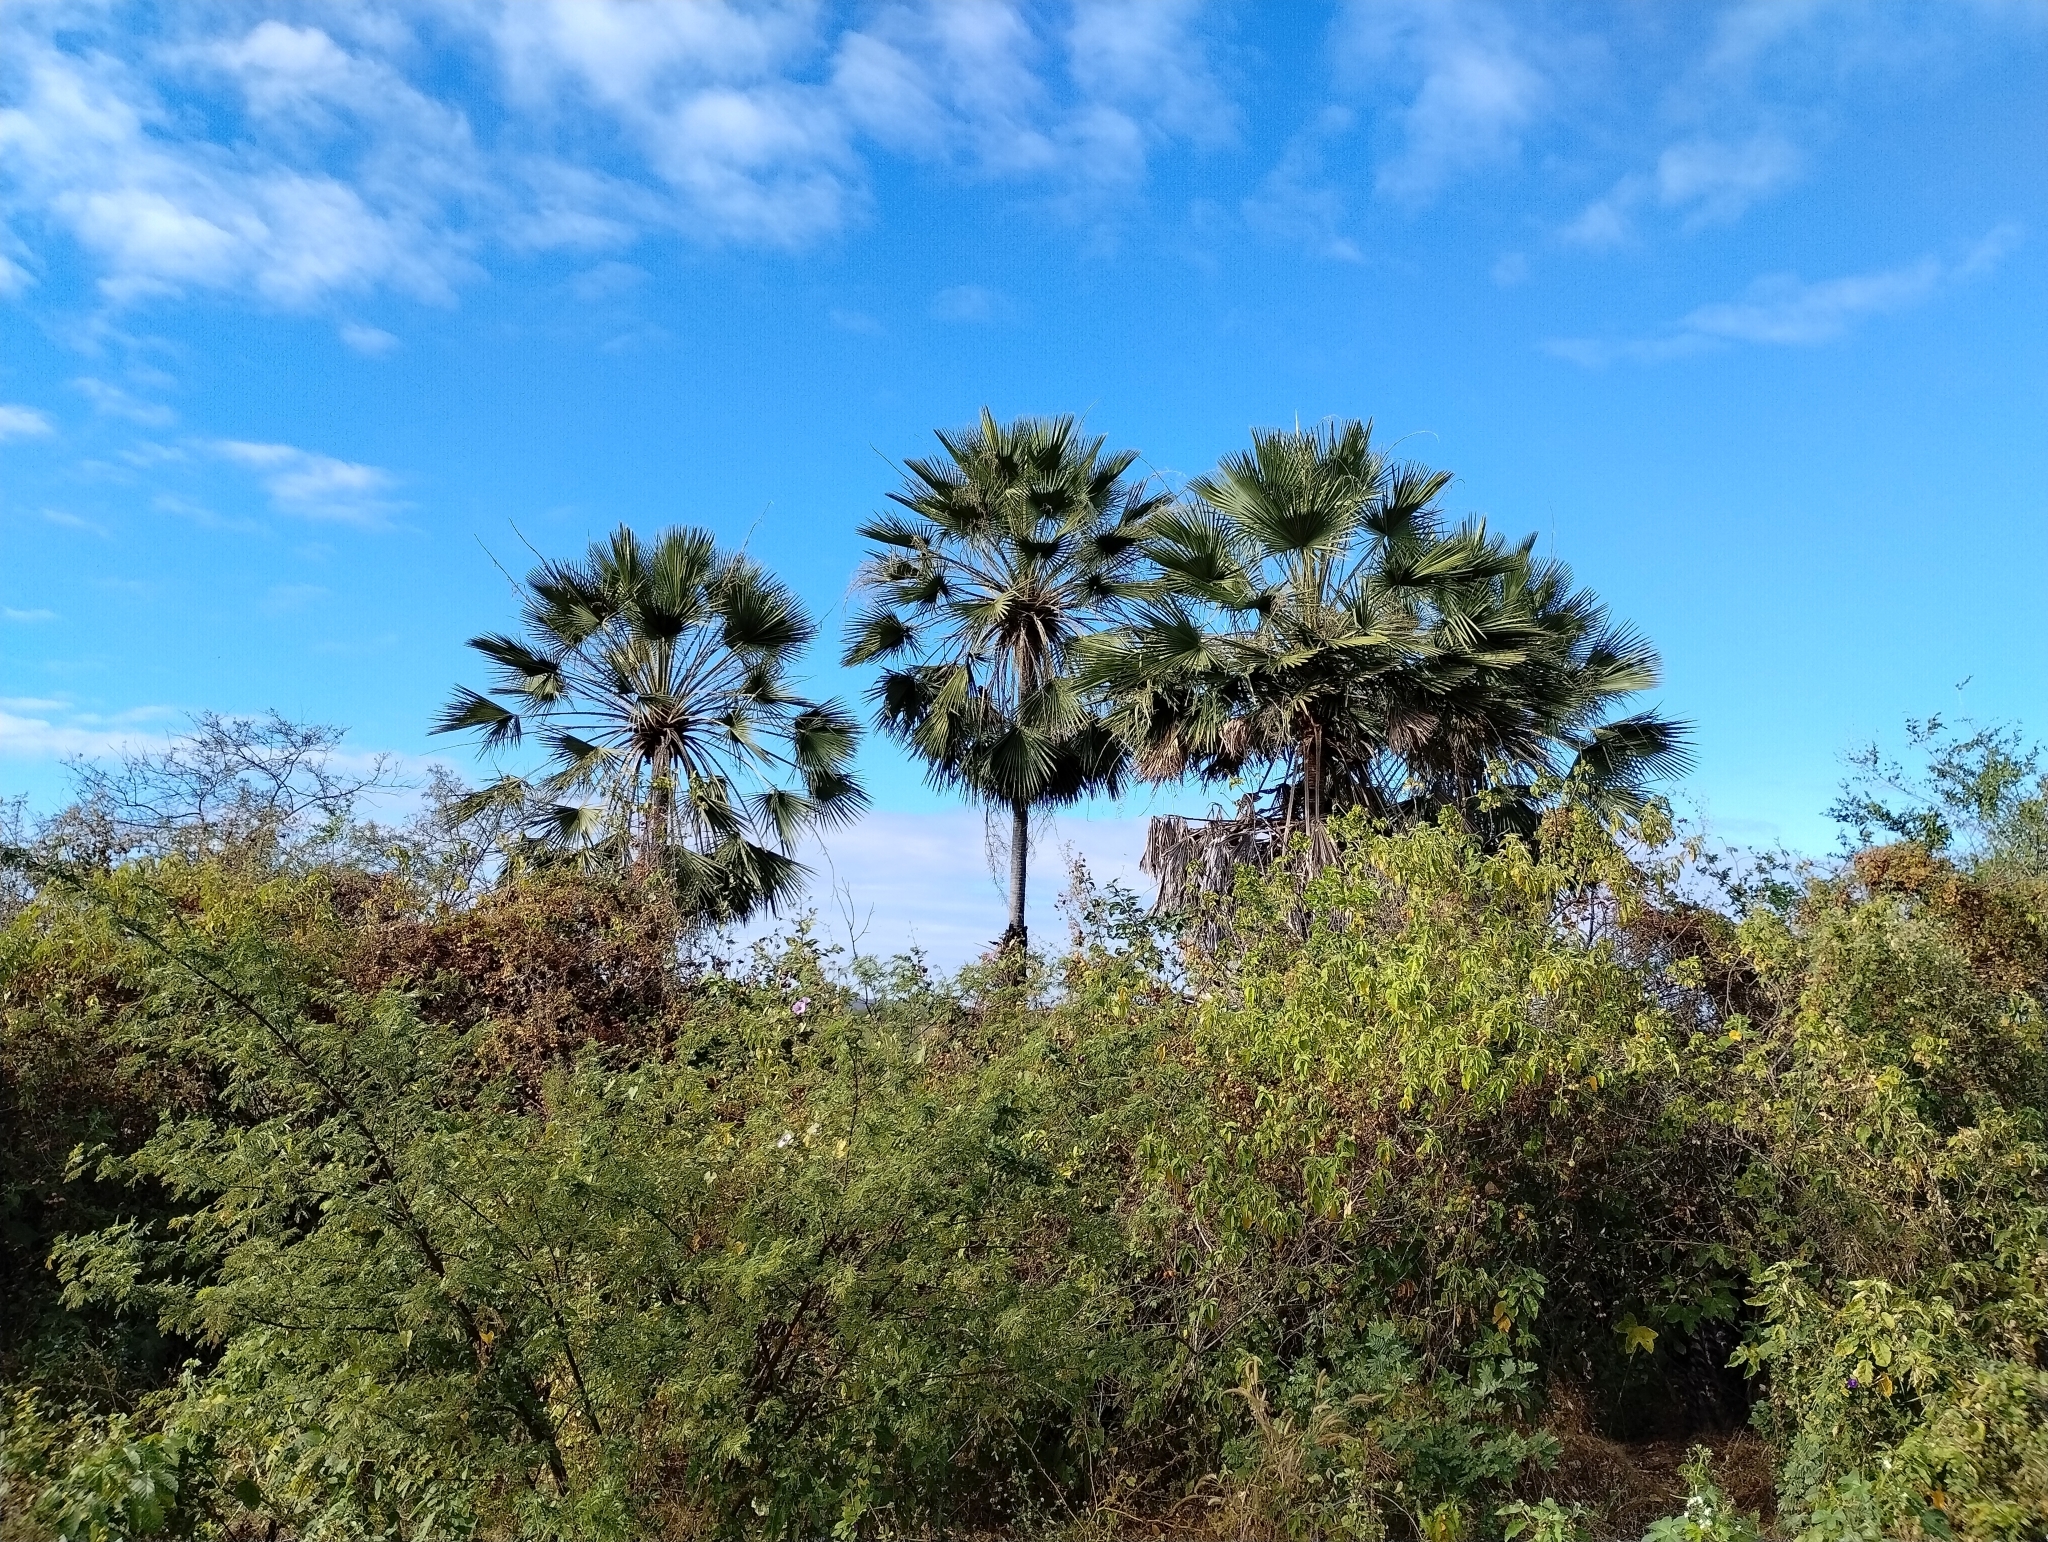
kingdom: Plantae
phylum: Tracheophyta
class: Liliopsida
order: Arecales
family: Arecaceae
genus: Copernicia
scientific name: Copernicia prunifera
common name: Carnauba palm
